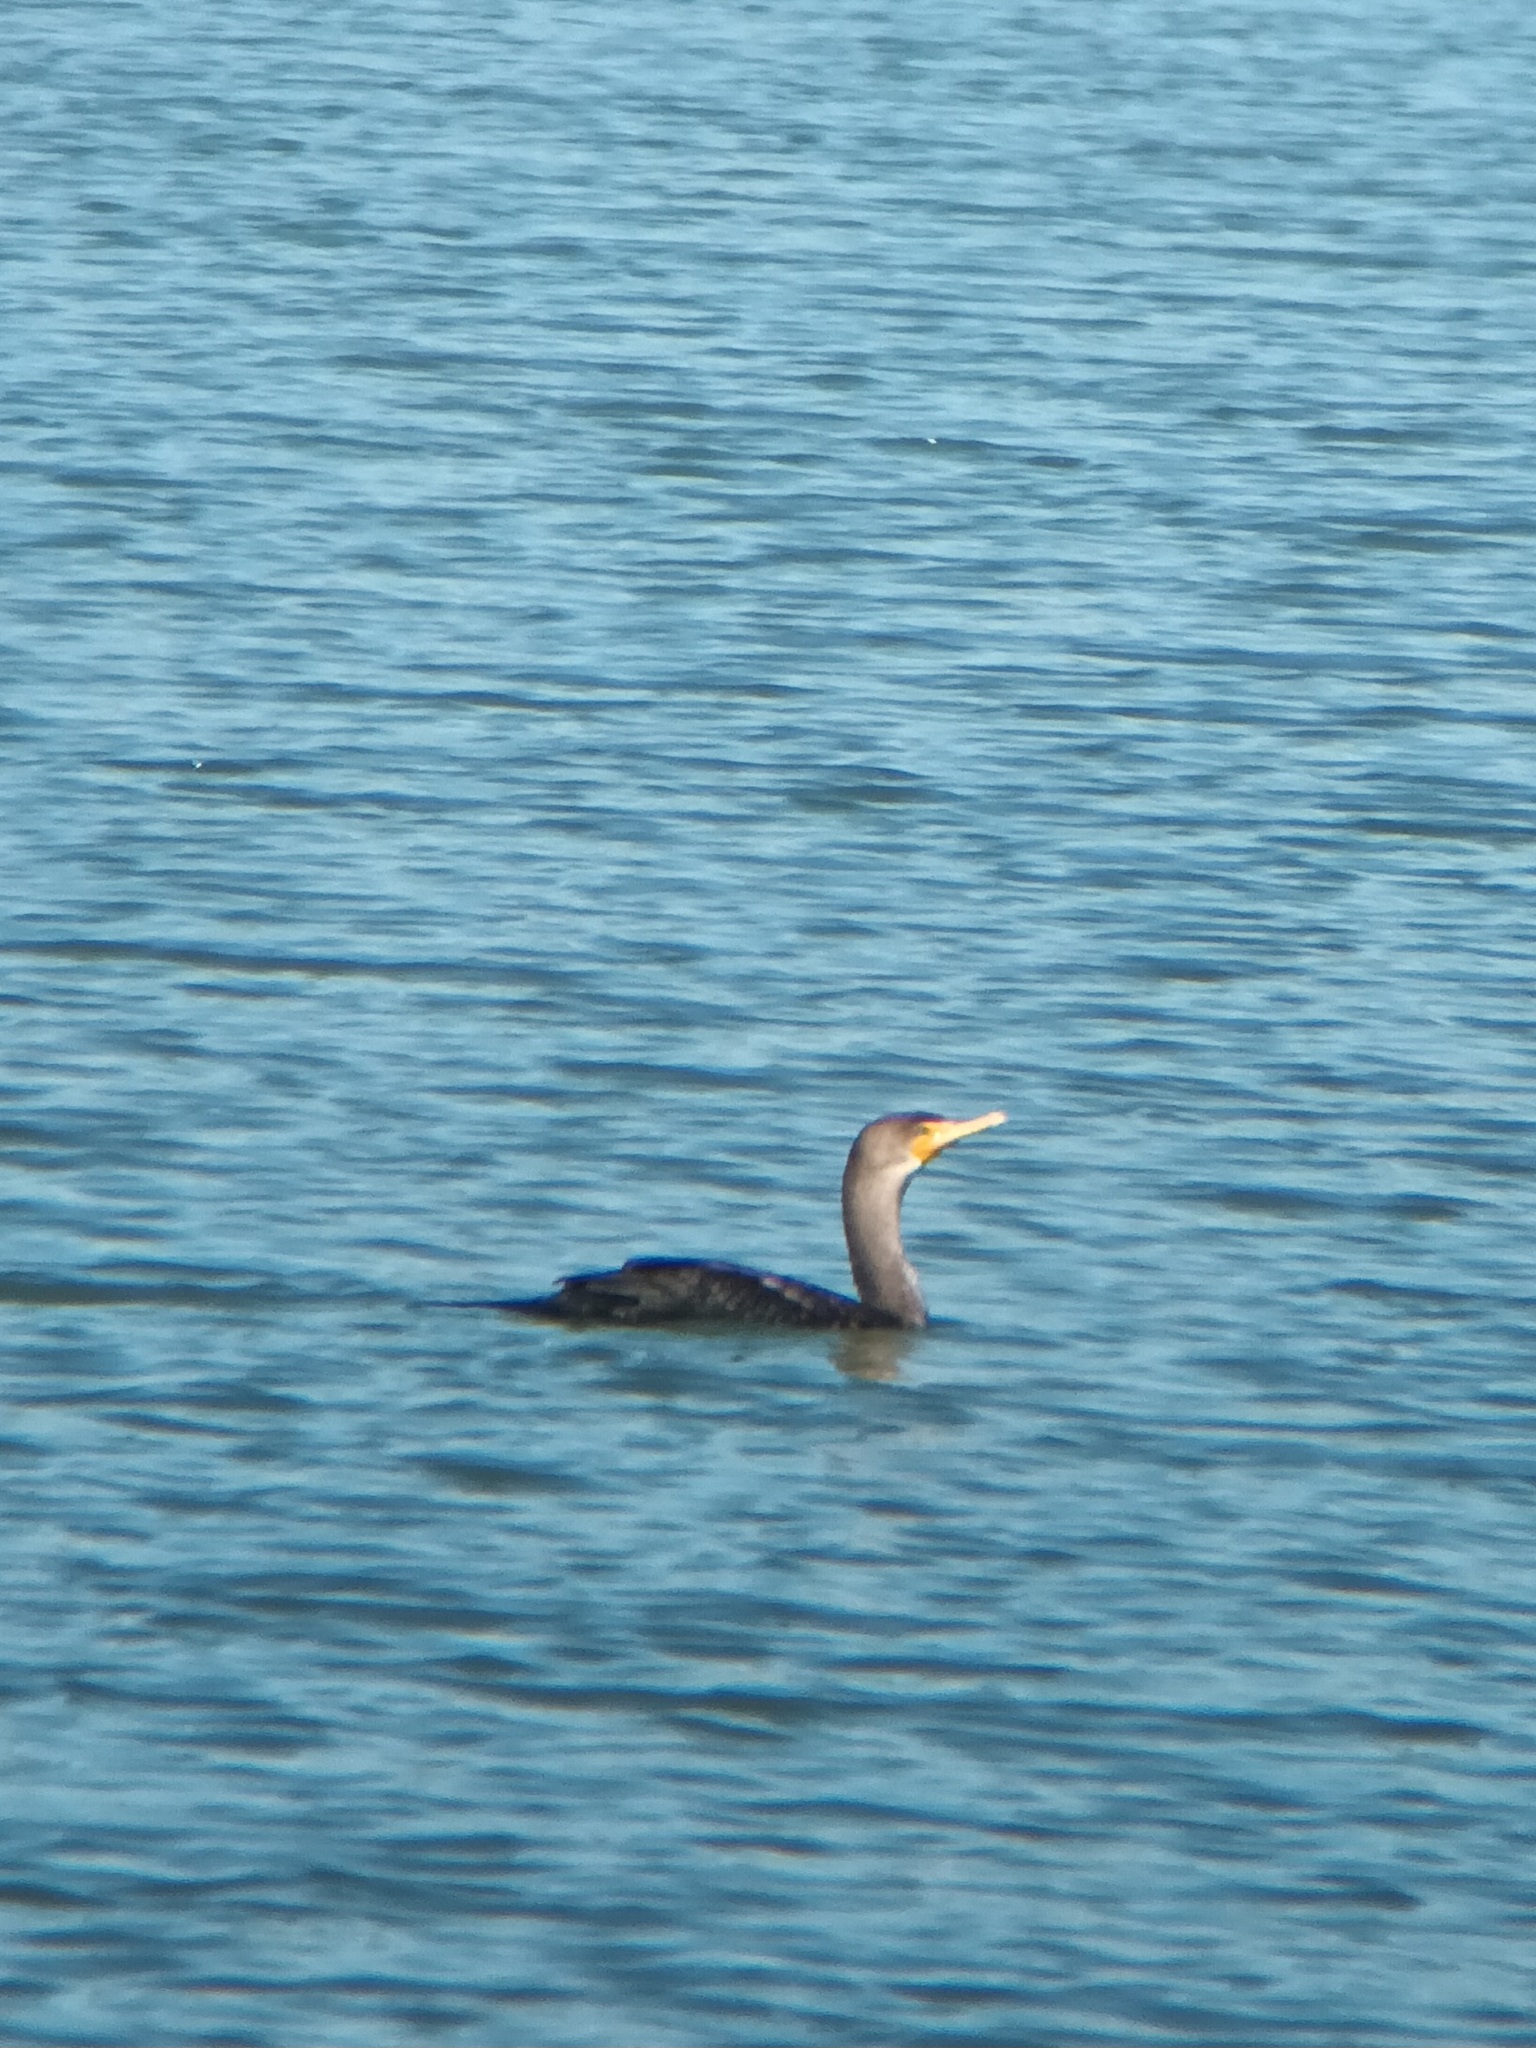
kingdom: Animalia
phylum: Chordata
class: Aves
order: Suliformes
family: Phalacrocoracidae
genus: Phalacrocorax
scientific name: Phalacrocorax auritus
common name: Double-crested cormorant
